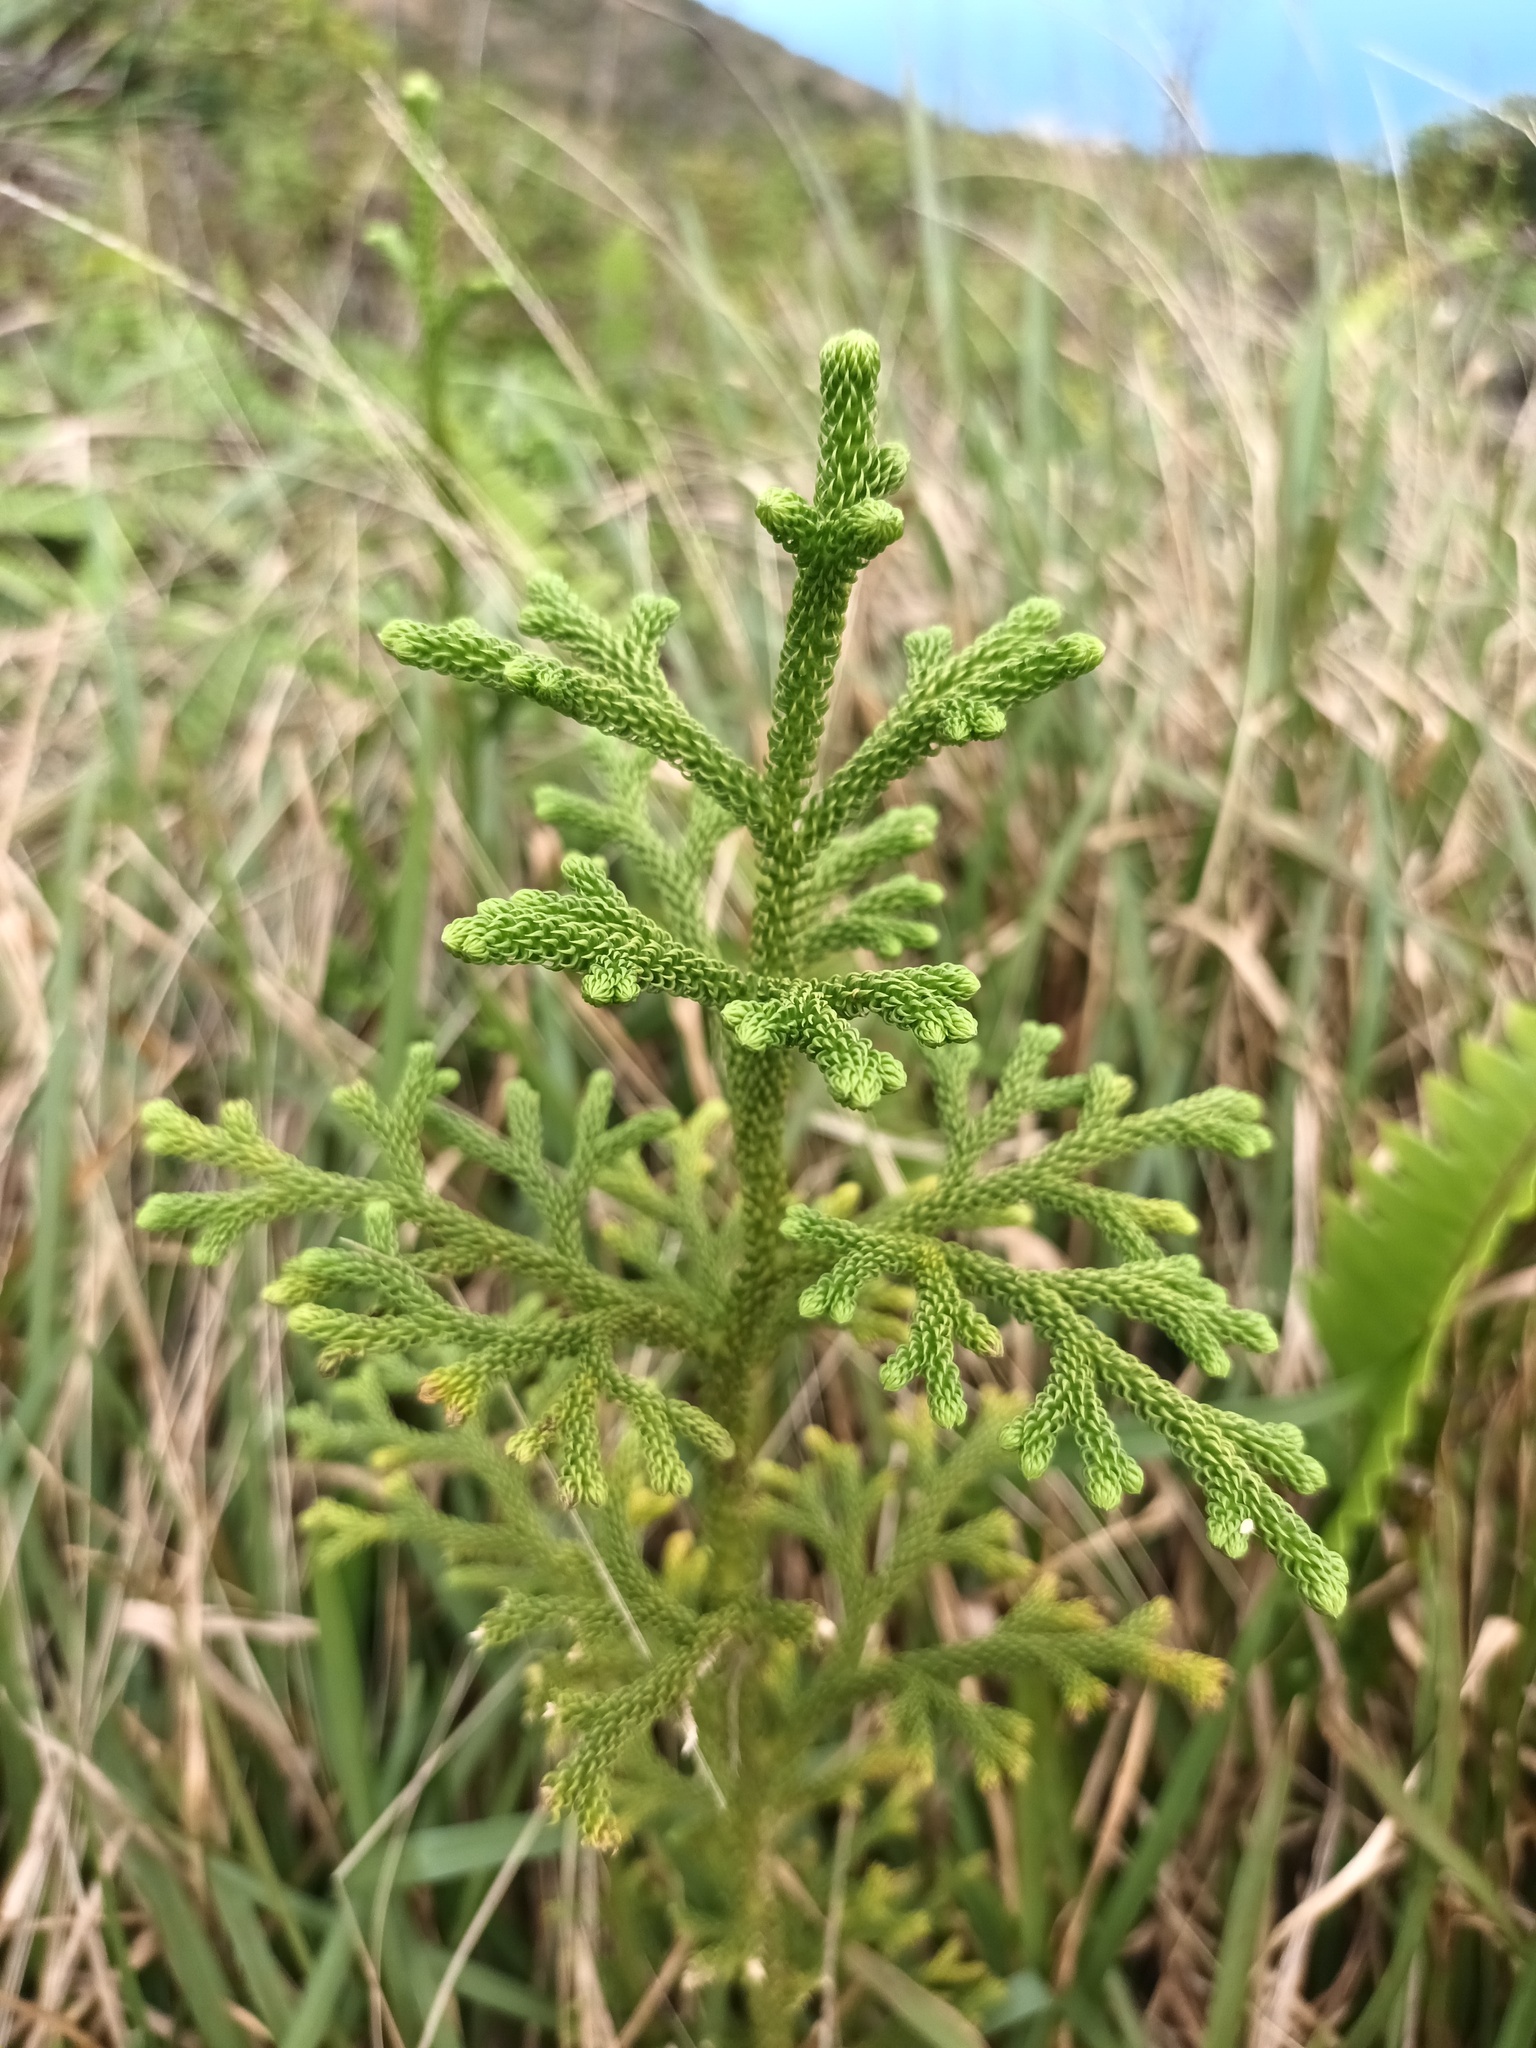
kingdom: Plantae
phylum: Tracheophyta
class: Lycopodiopsida
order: Lycopodiales
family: Lycopodiaceae
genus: Palhinhaea
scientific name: Palhinhaea cernua
